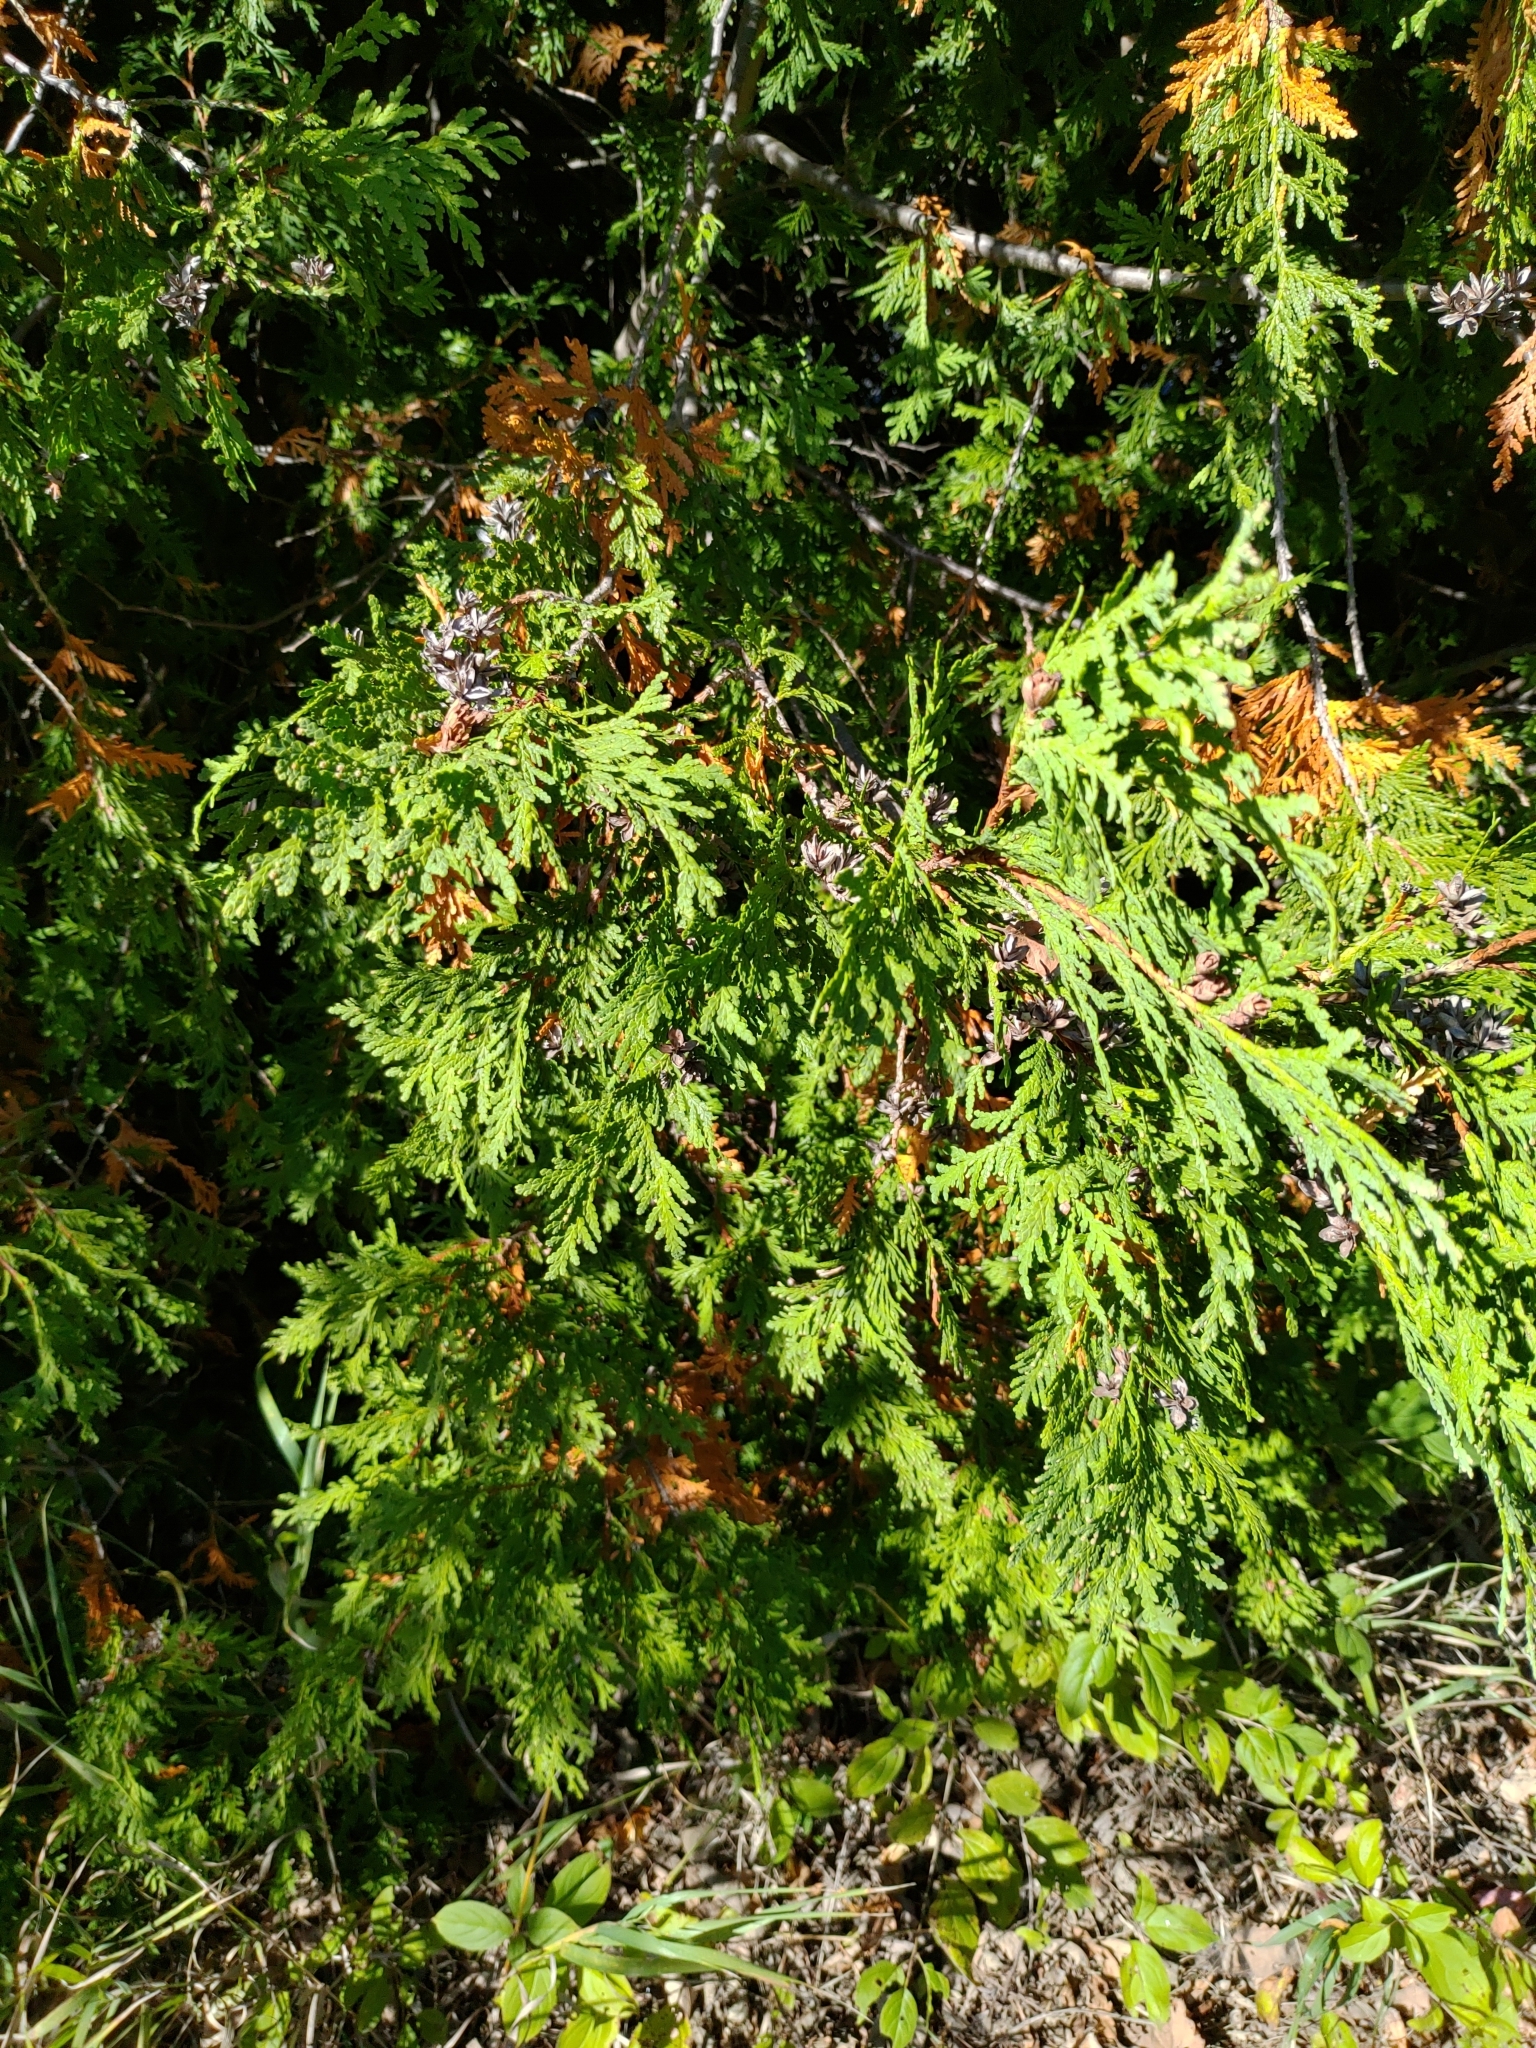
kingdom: Plantae
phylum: Tracheophyta
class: Pinopsida
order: Pinales
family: Cupressaceae
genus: Thuja
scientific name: Thuja occidentalis
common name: Northern white-cedar
